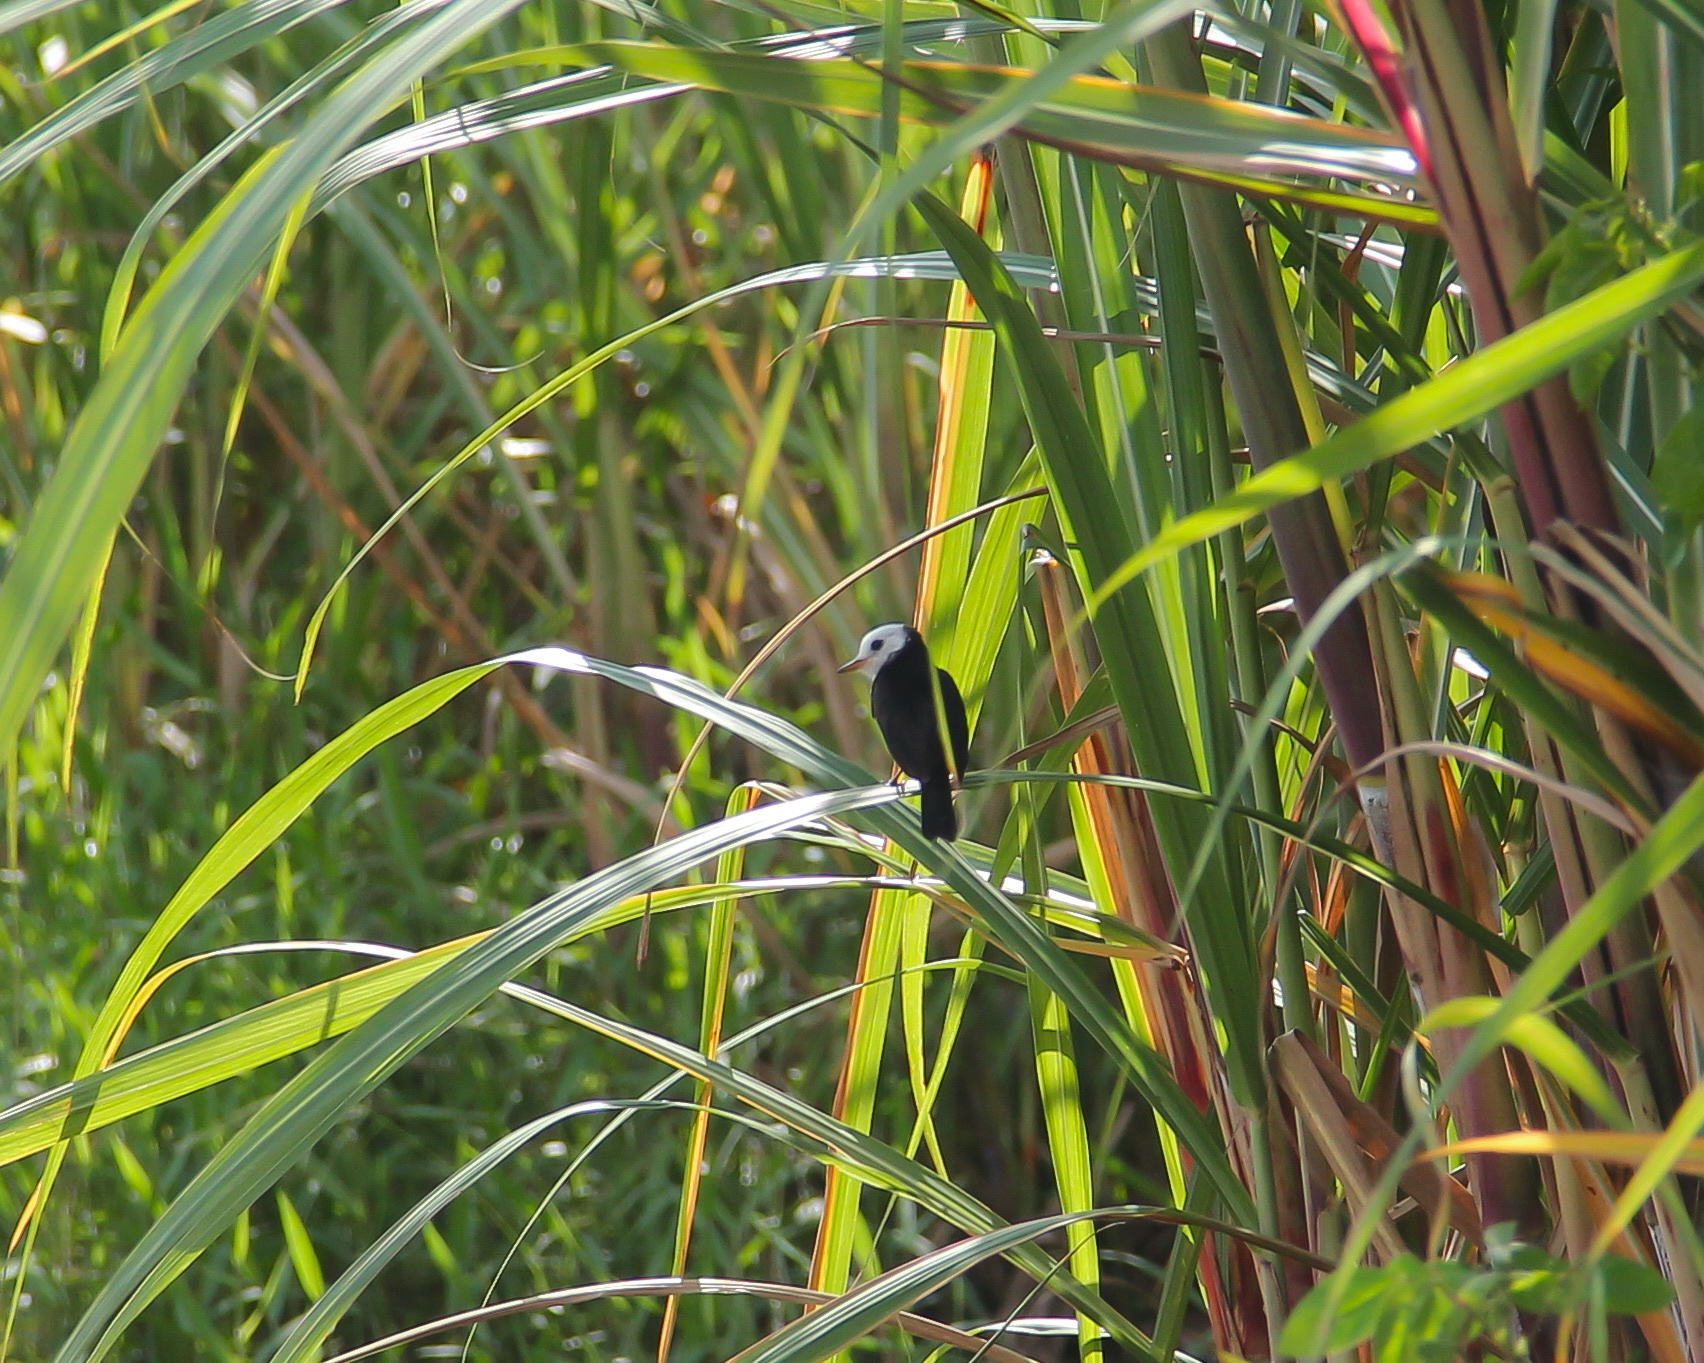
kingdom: Animalia
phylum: Chordata
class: Aves
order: Passeriformes
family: Tyrannidae
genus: Arundinicola
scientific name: Arundinicola leucocephala
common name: White-headed marsh tyrant
